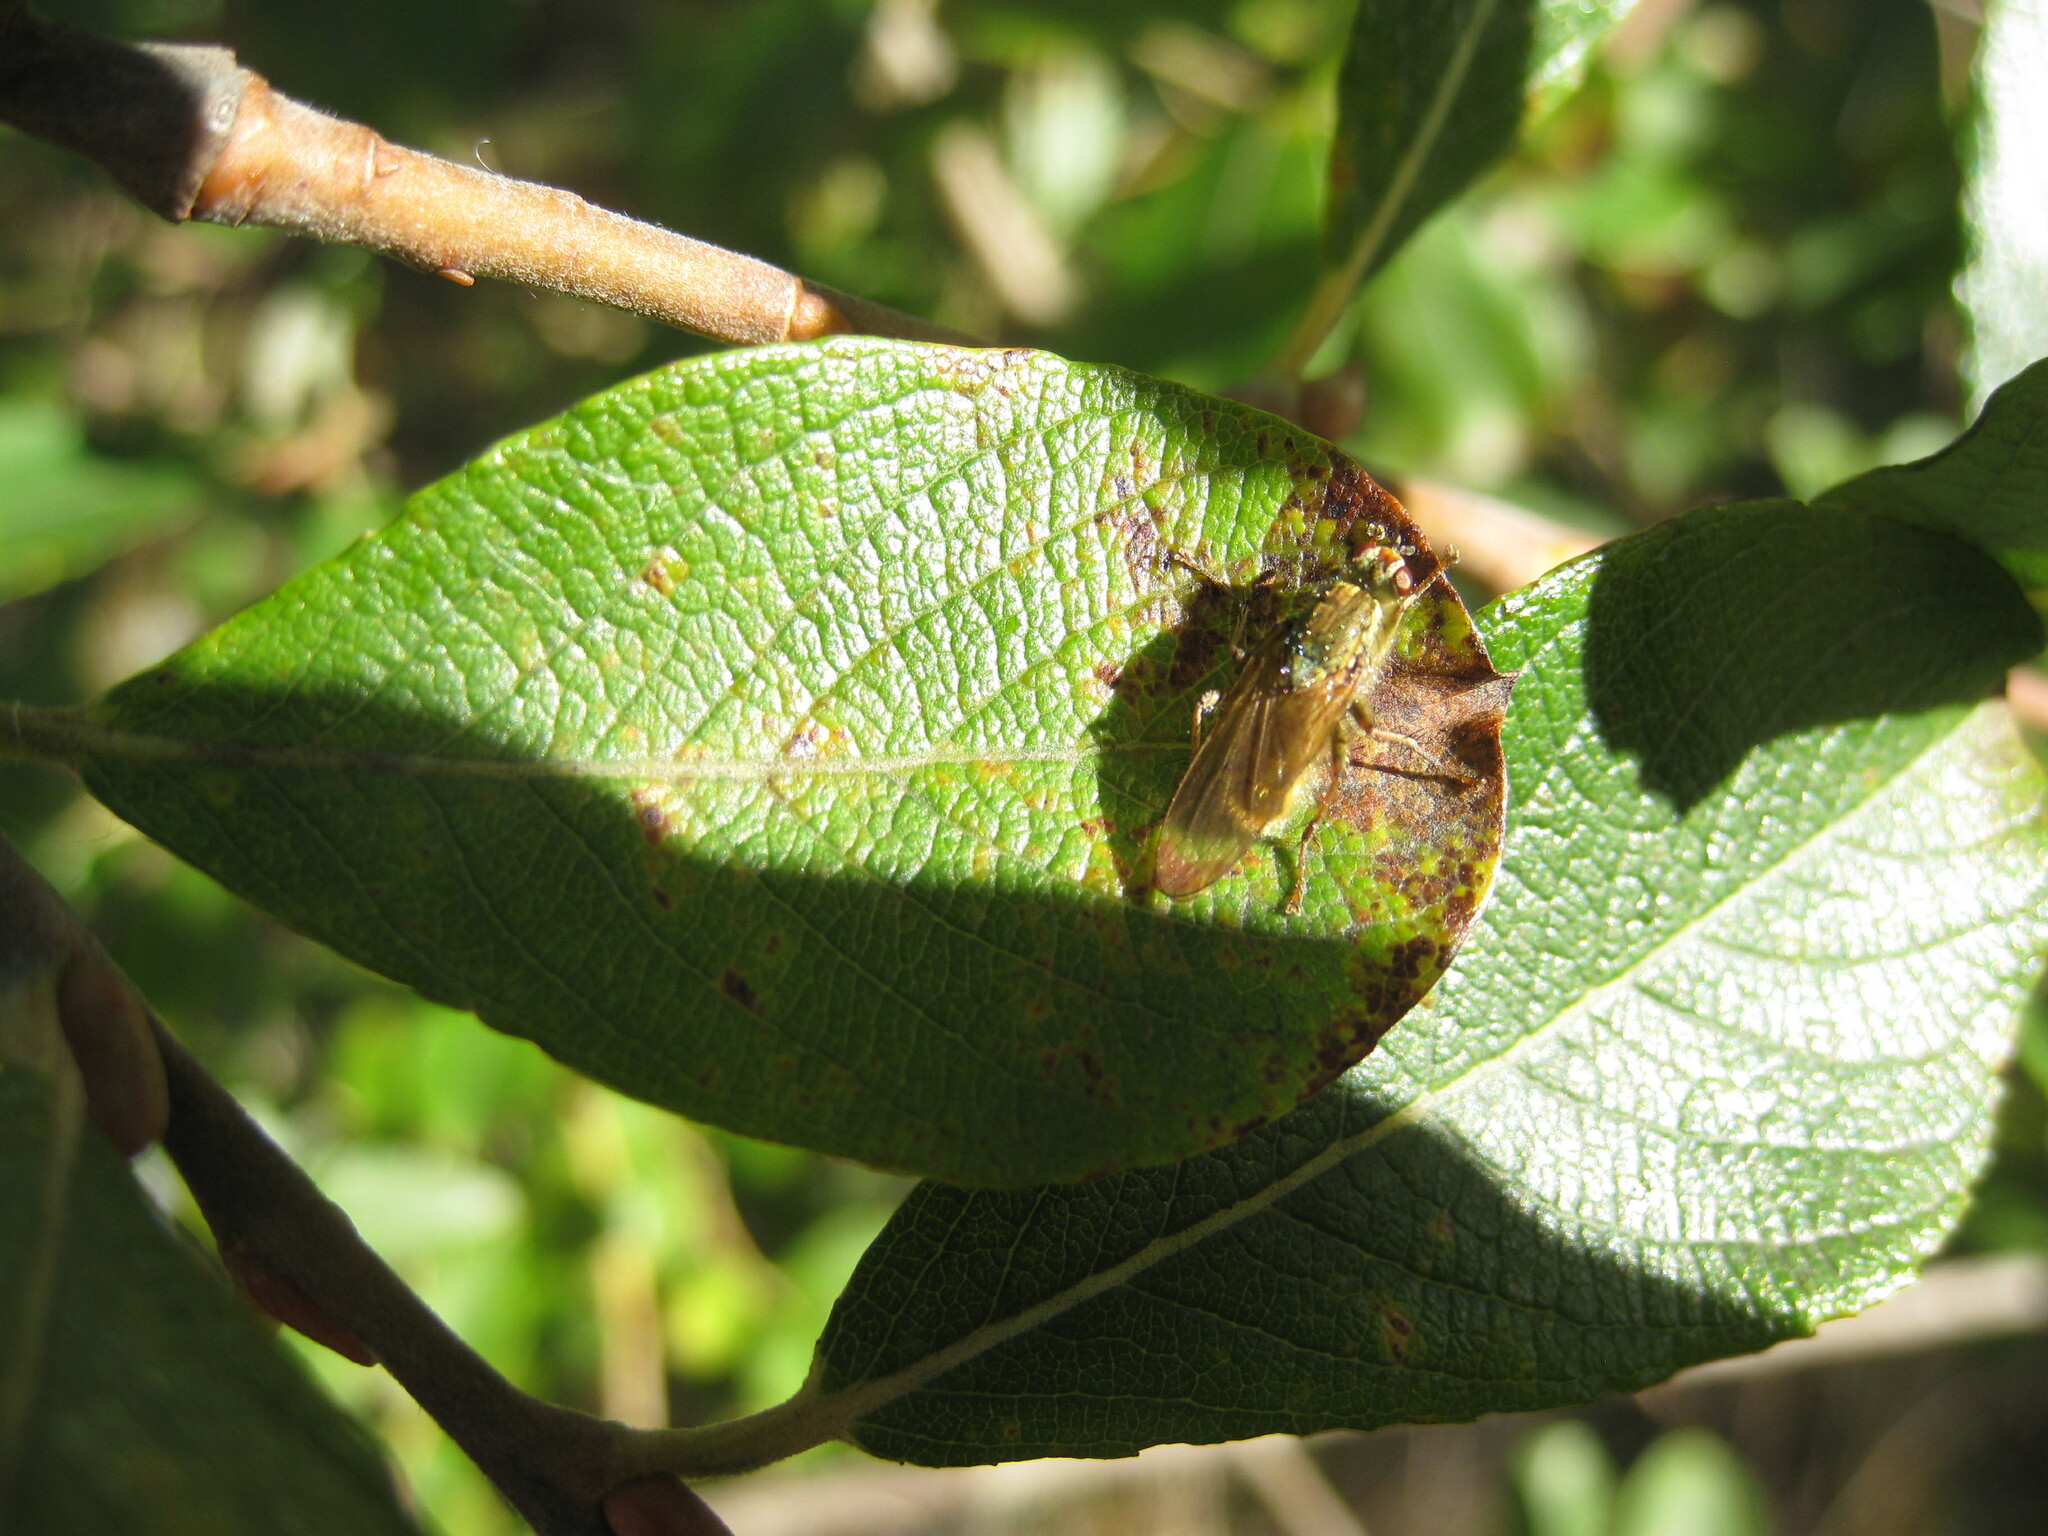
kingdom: Animalia
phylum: Arthropoda
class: Insecta
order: Diptera
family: Scathophagidae
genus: Scathophaga
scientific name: Scathophaga stercoraria
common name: Yellow dung fly
